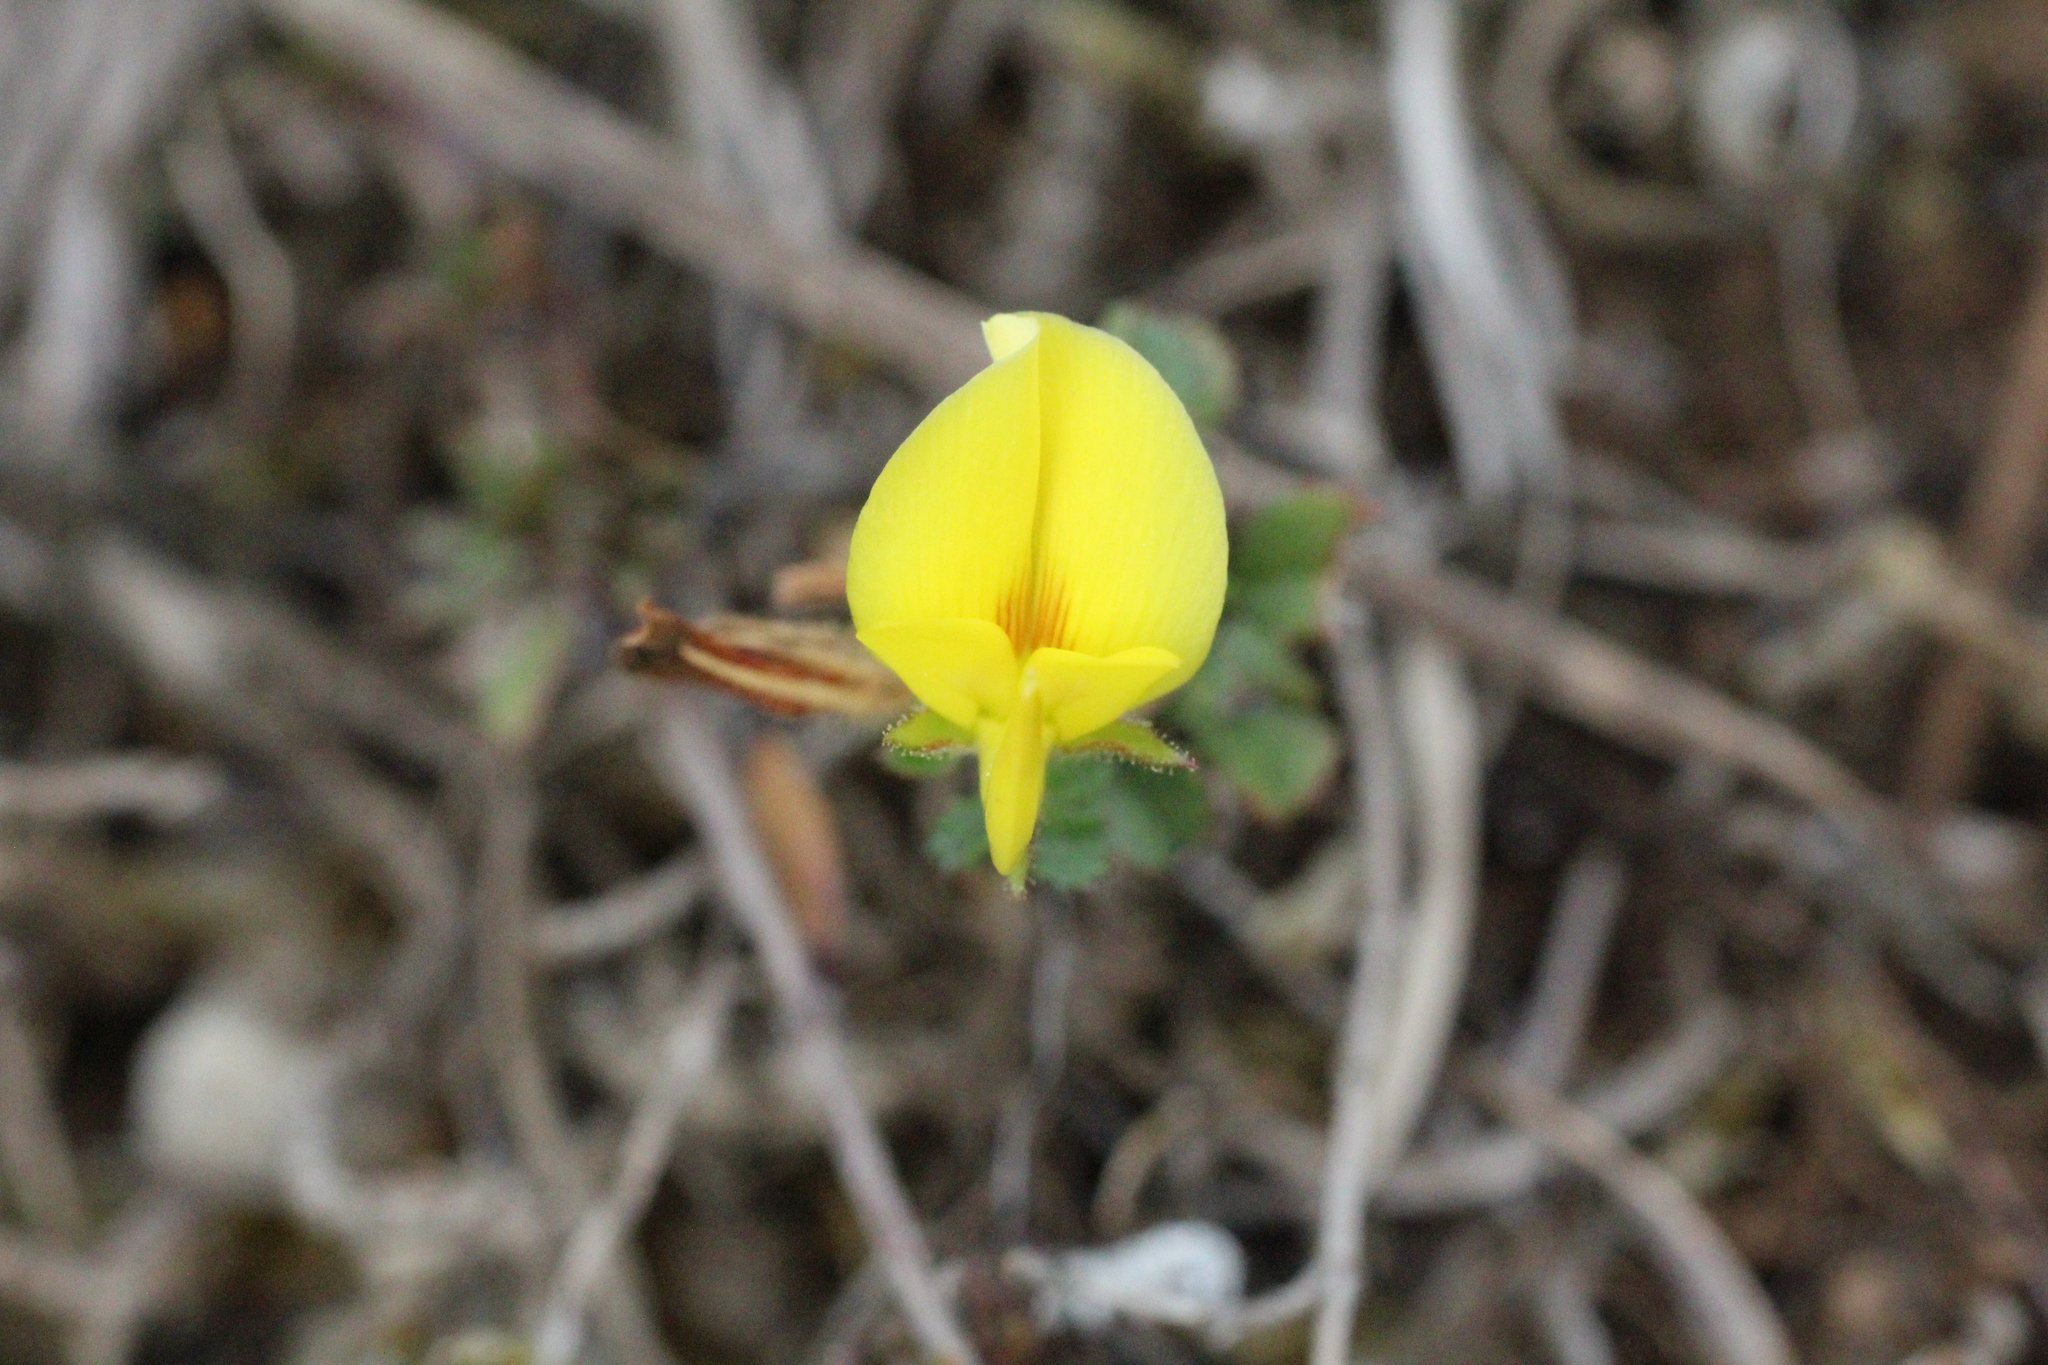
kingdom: Plantae
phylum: Tracheophyta
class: Magnoliopsida
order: Fabales
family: Fabaceae
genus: Ononis
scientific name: Ononis minutissima
